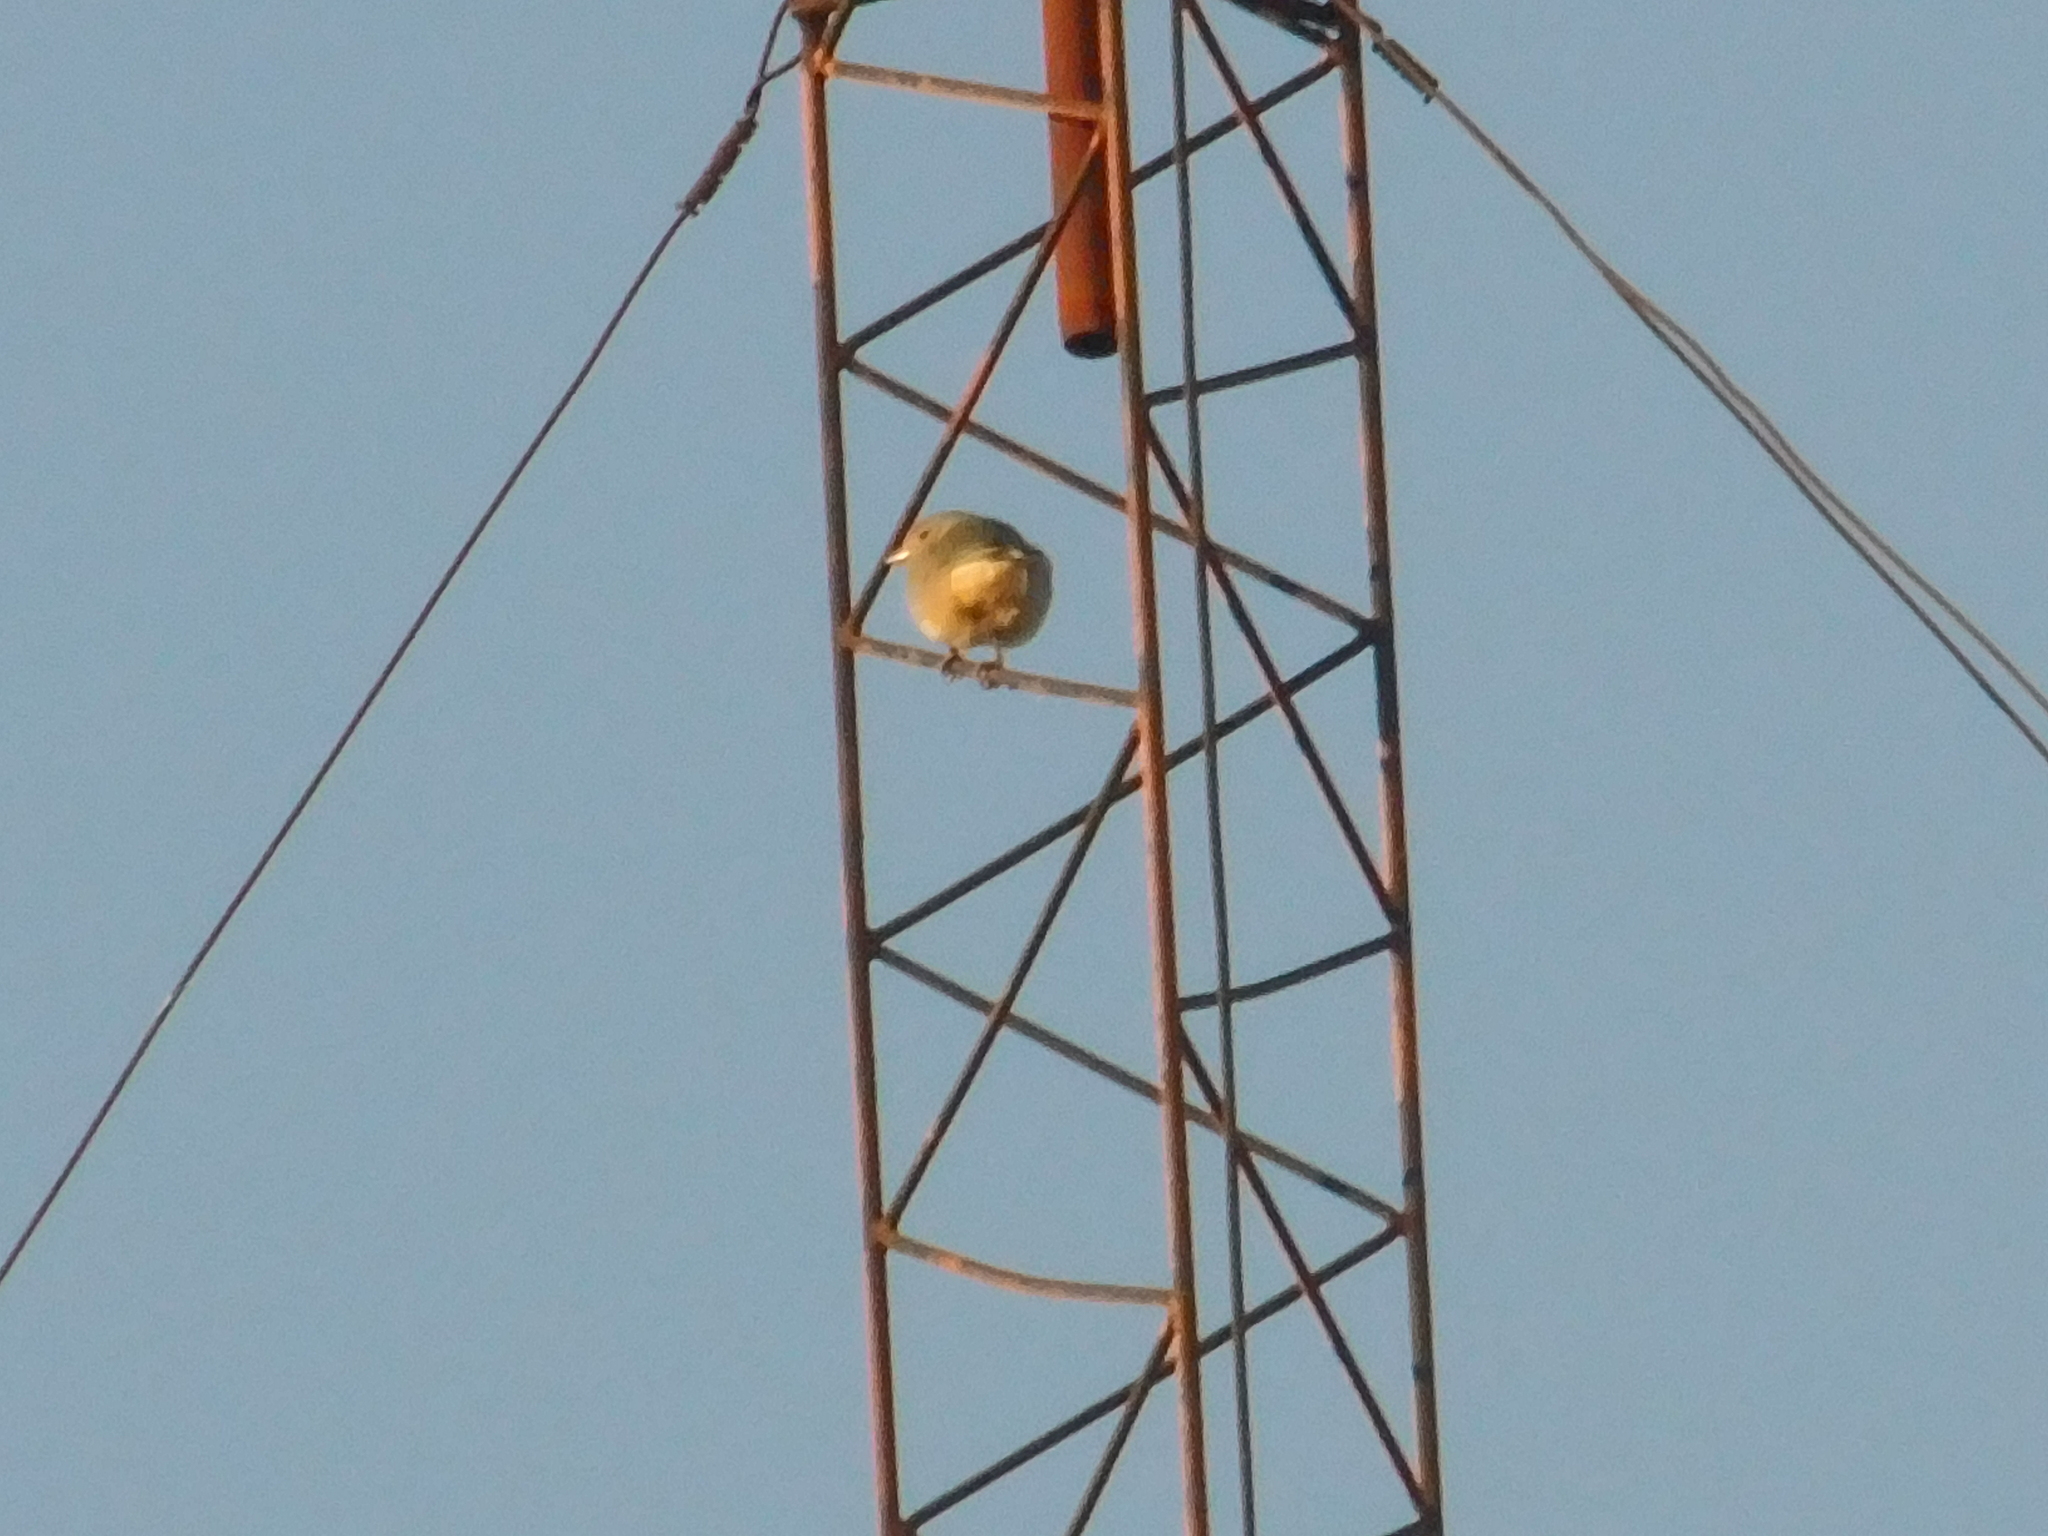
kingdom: Animalia
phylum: Chordata
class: Aves
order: Passeriformes
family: Thraupidae
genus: Thraupis
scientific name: Thraupis sayaca
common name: Sayaca tanager
